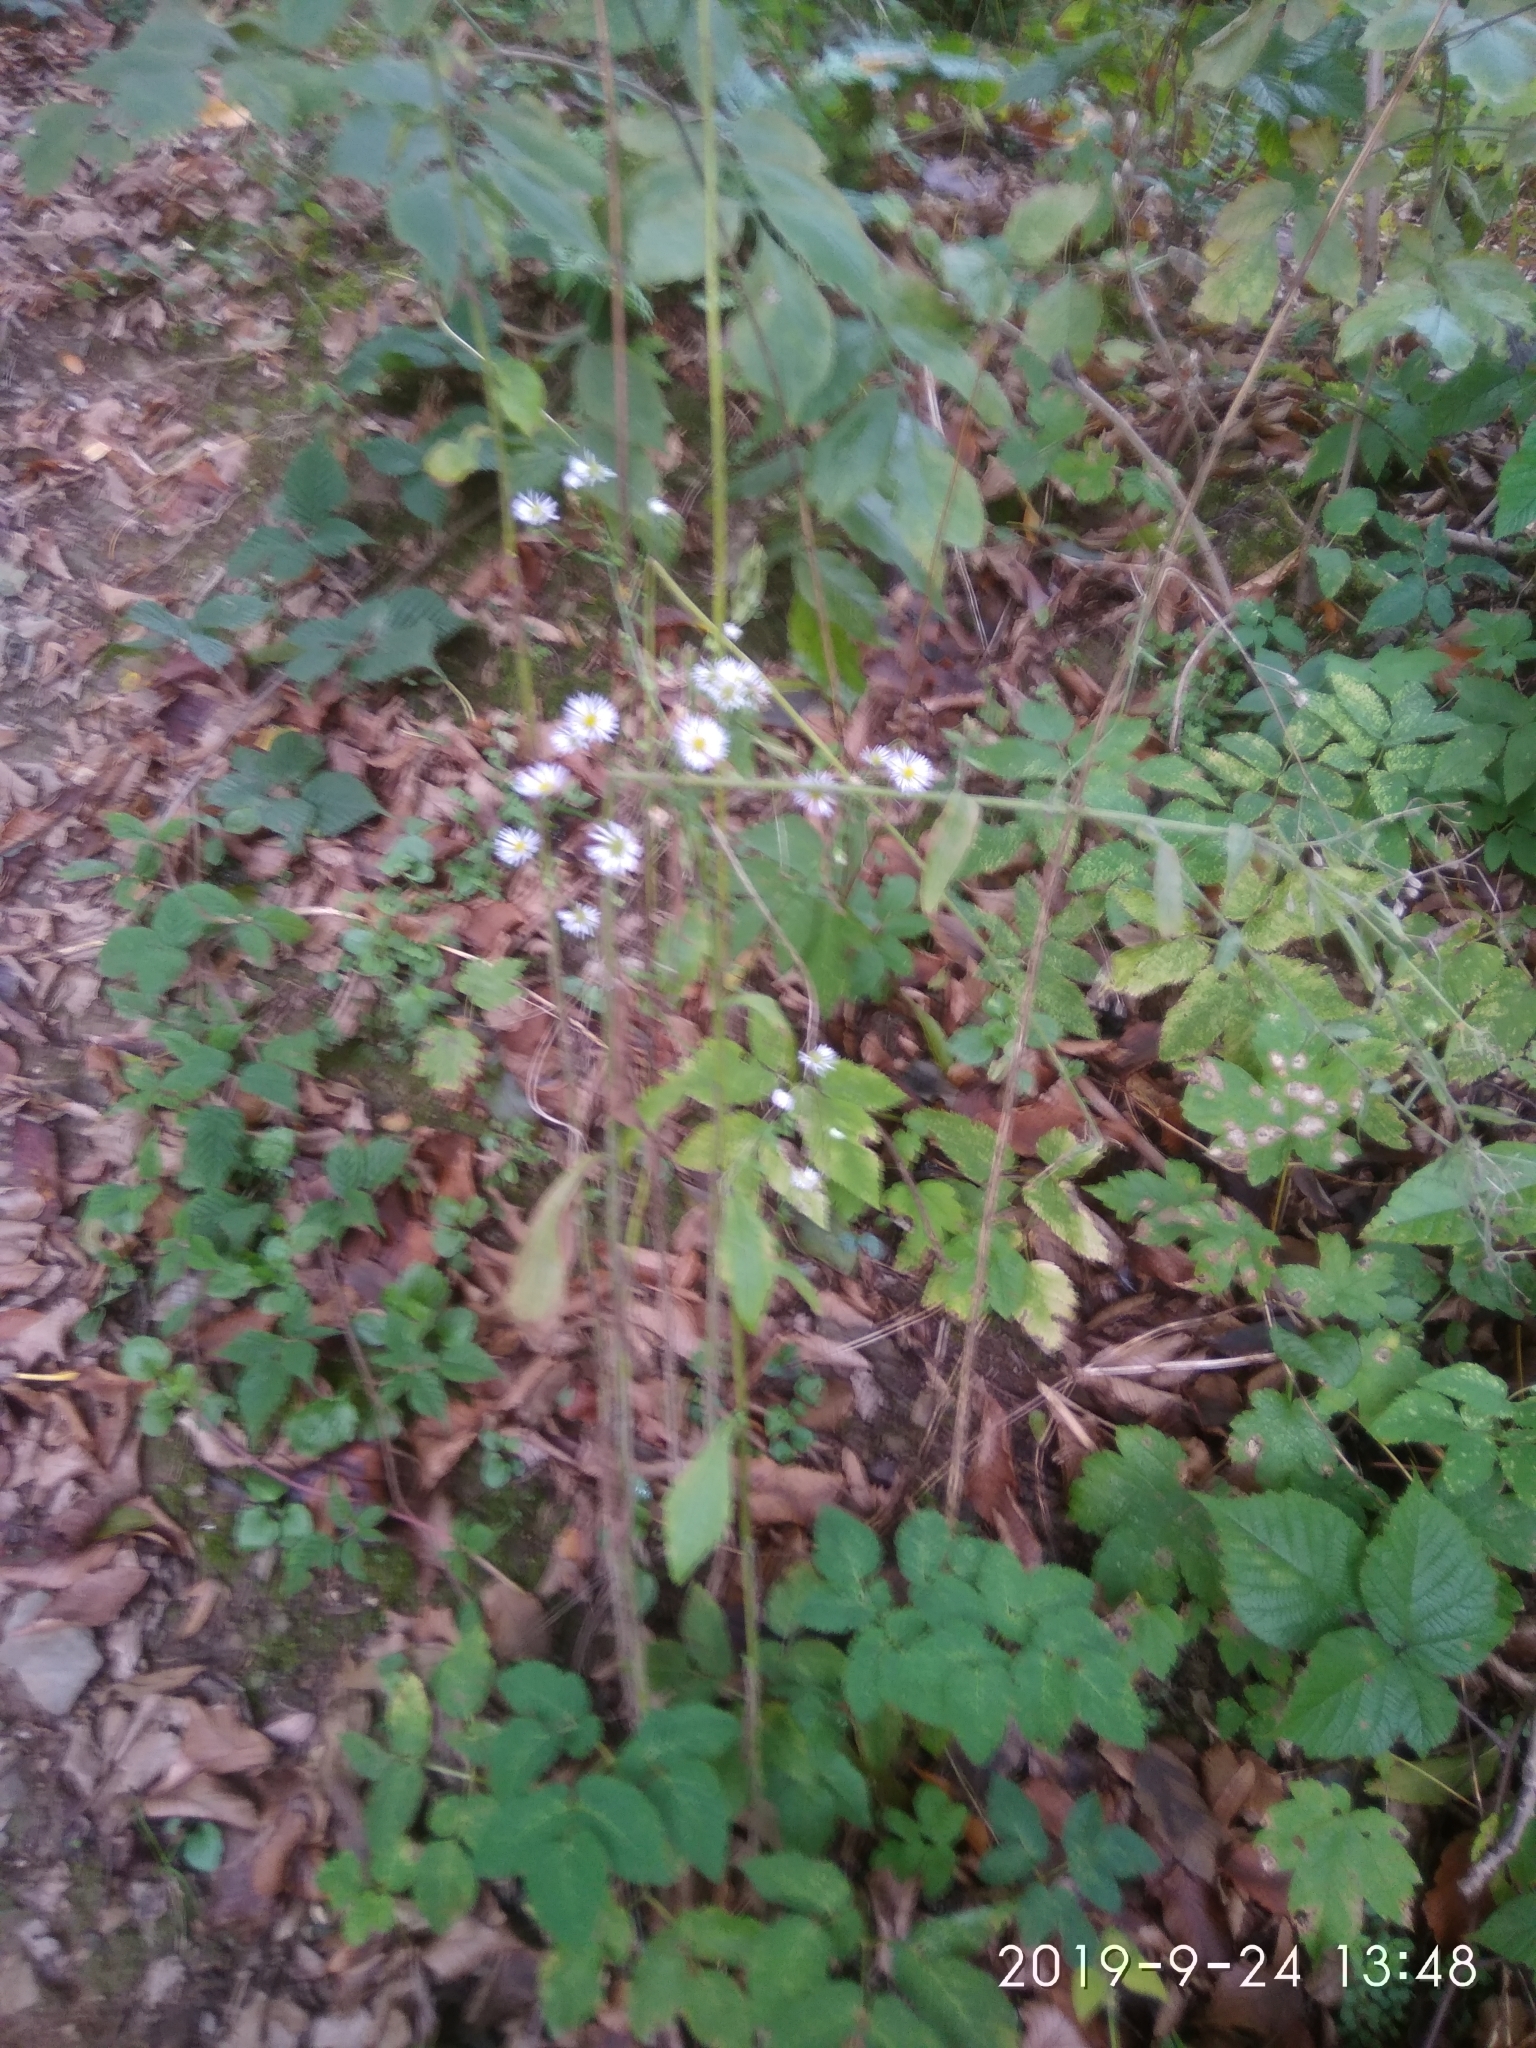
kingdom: Plantae
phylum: Tracheophyta
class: Magnoliopsida
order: Asterales
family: Asteraceae
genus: Erigeron
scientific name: Erigeron annuus
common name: Tall fleabane
